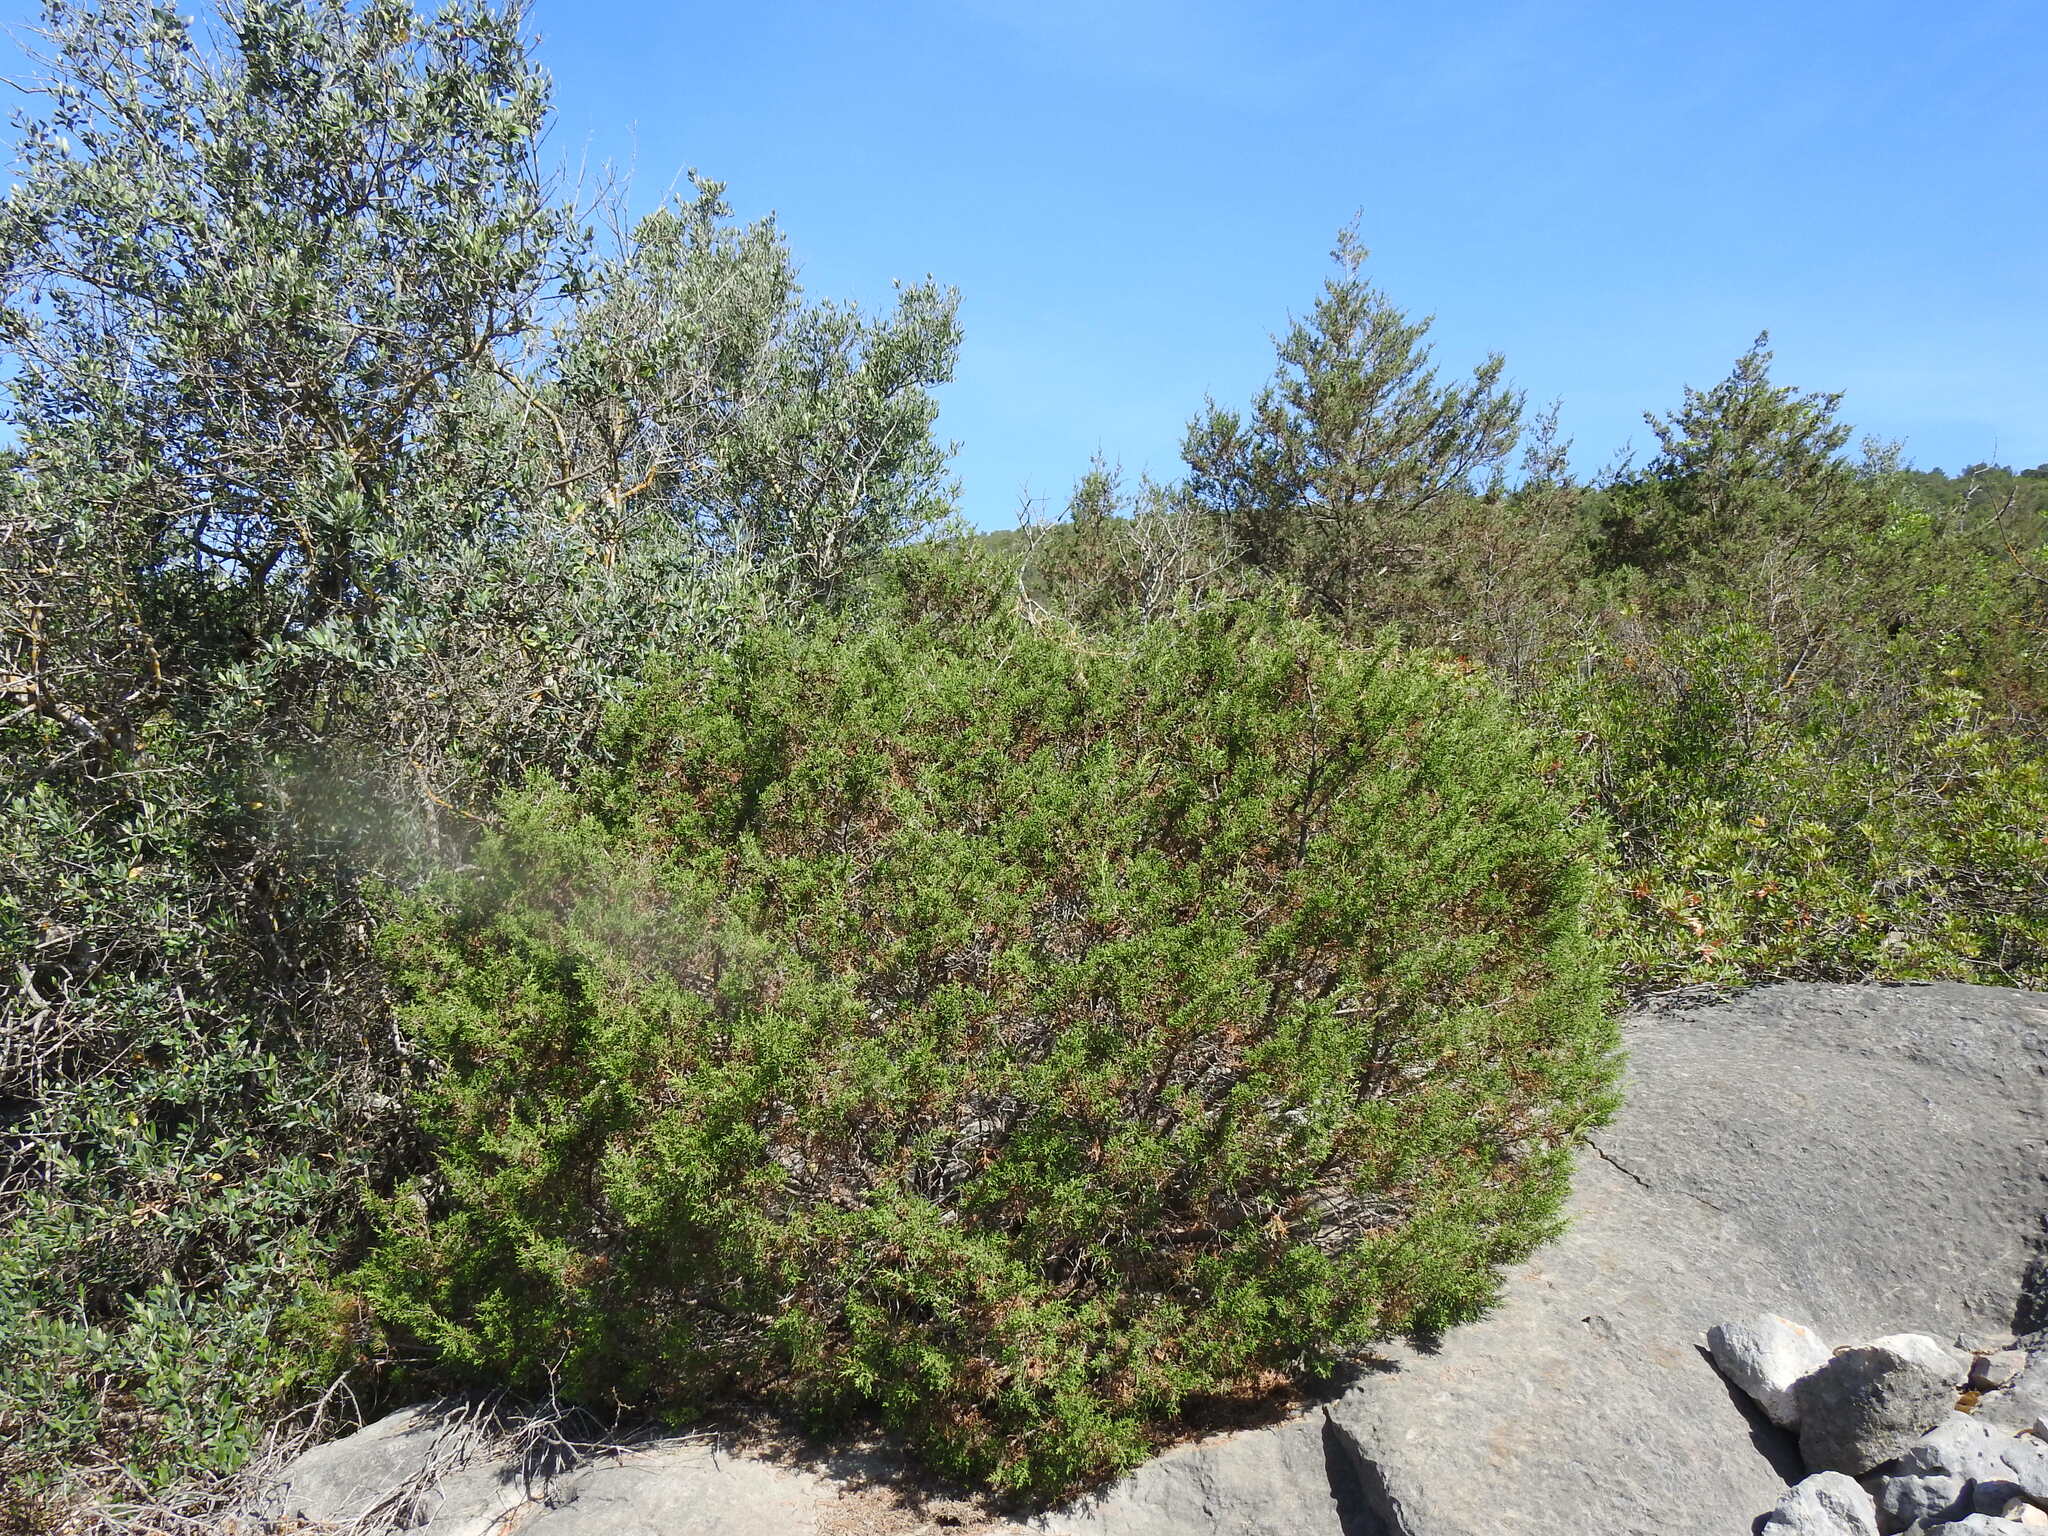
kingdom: Plantae
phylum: Tracheophyta
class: Pinopsida
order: Pinales
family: Cupressaceae
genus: Juniperus
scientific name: Juniperus phoenicea
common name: Phoenician juniper
